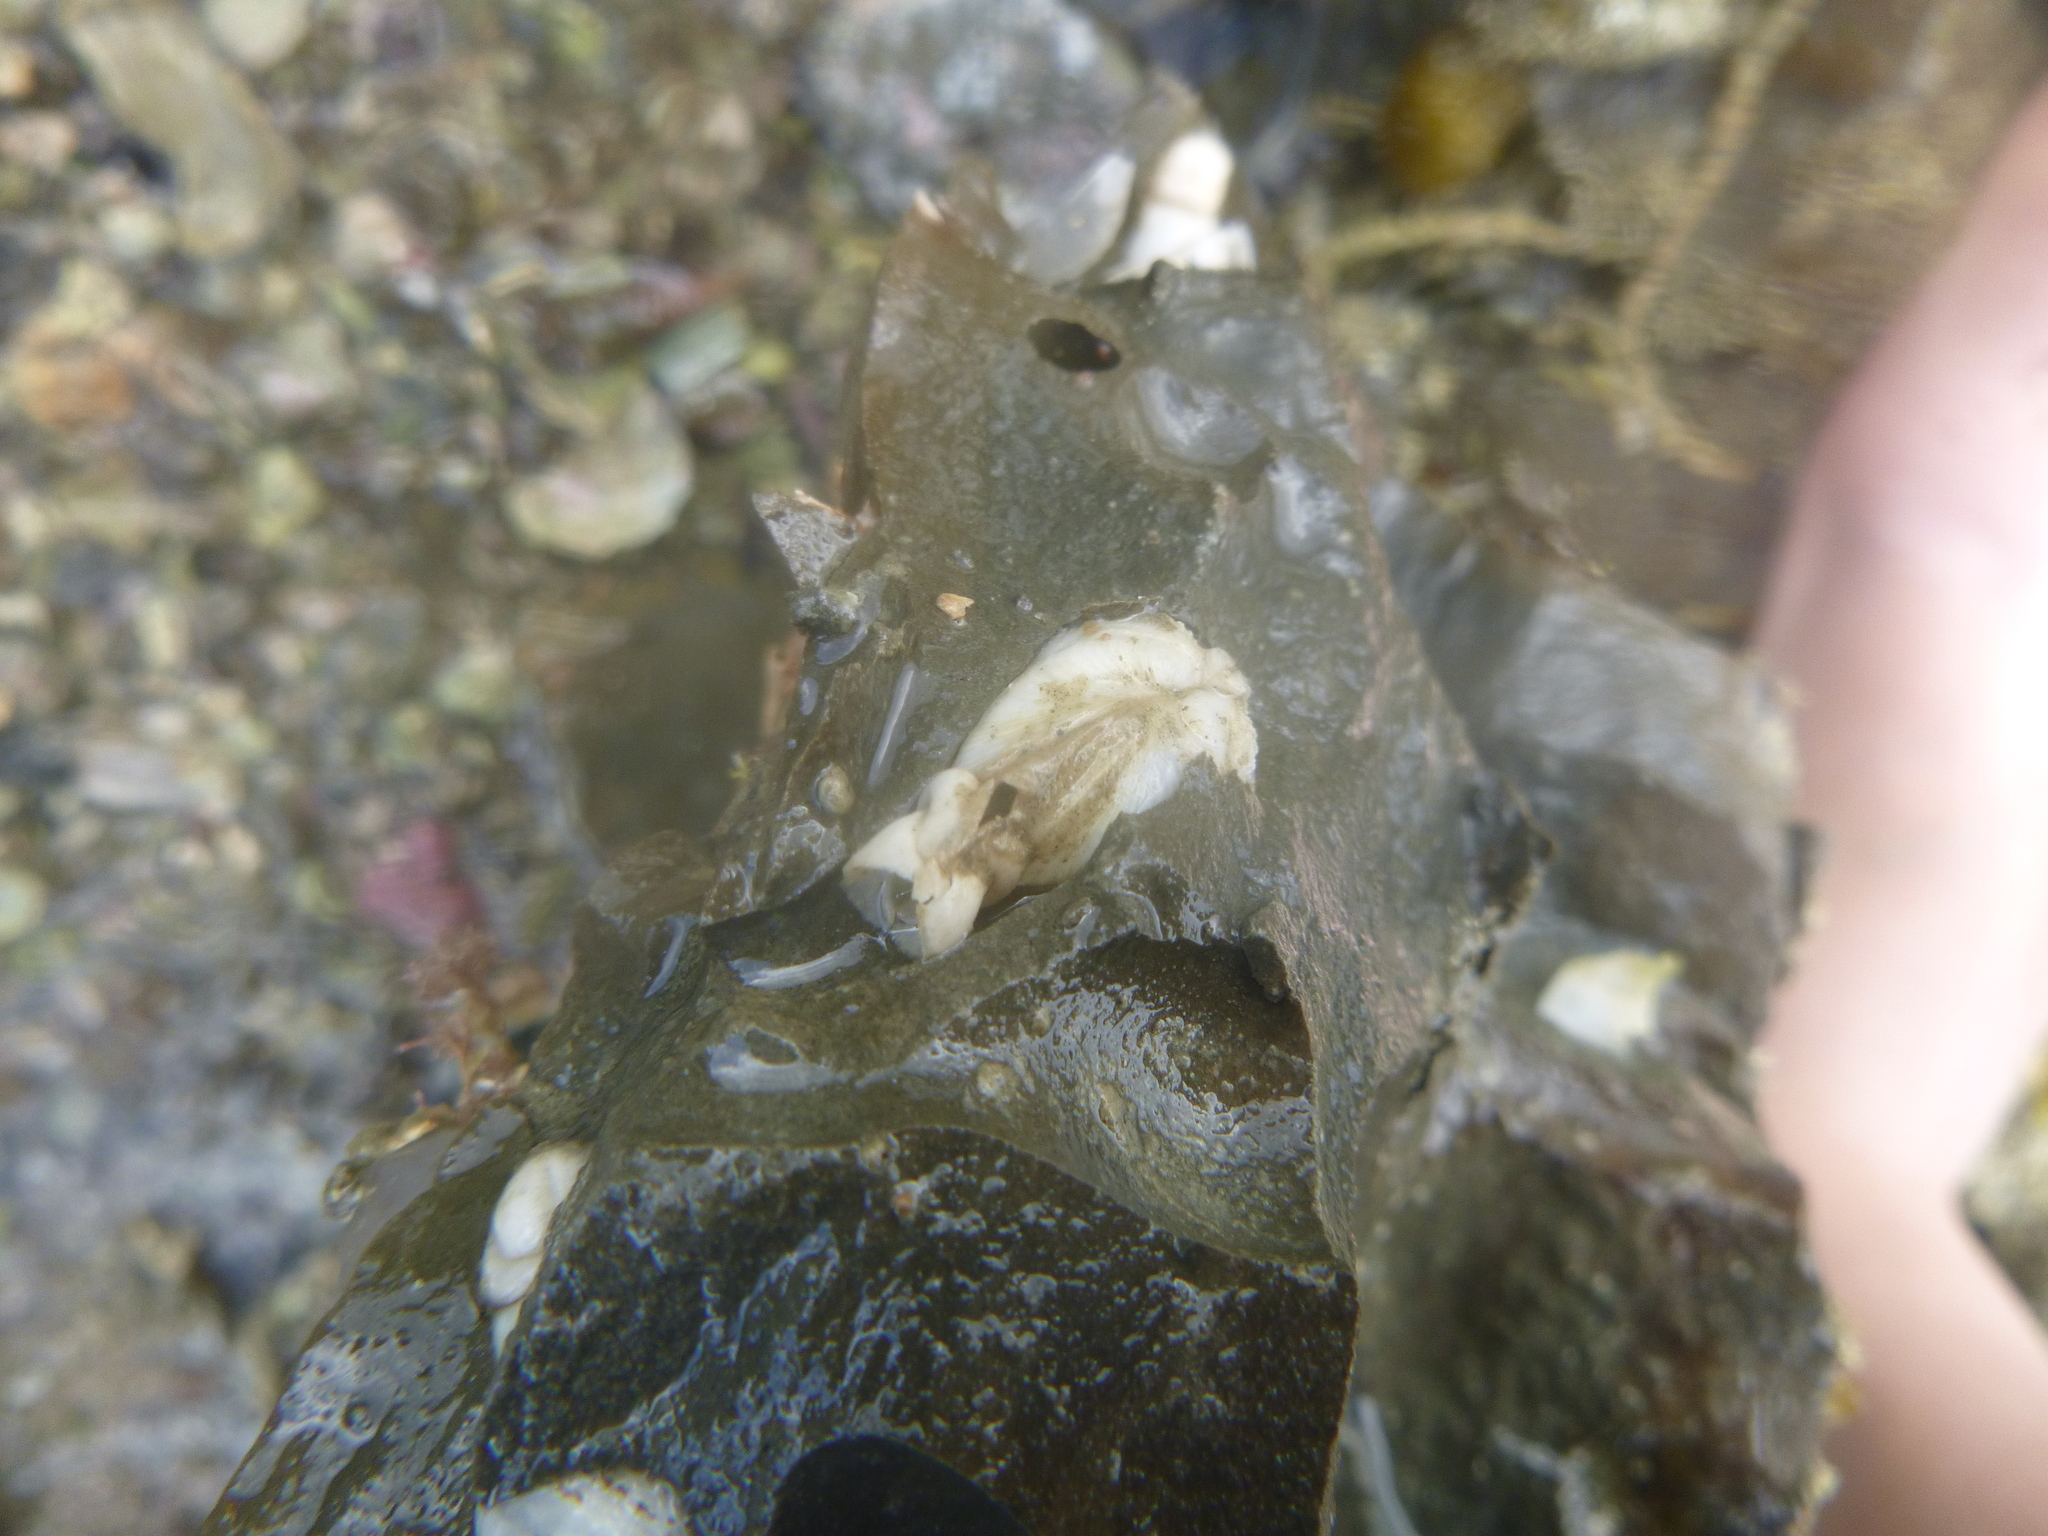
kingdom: Animalia
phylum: Mollusca
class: Bivalvia
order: Myida
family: Pholadidae
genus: Pholadidea
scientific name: Pholadidea tridens
